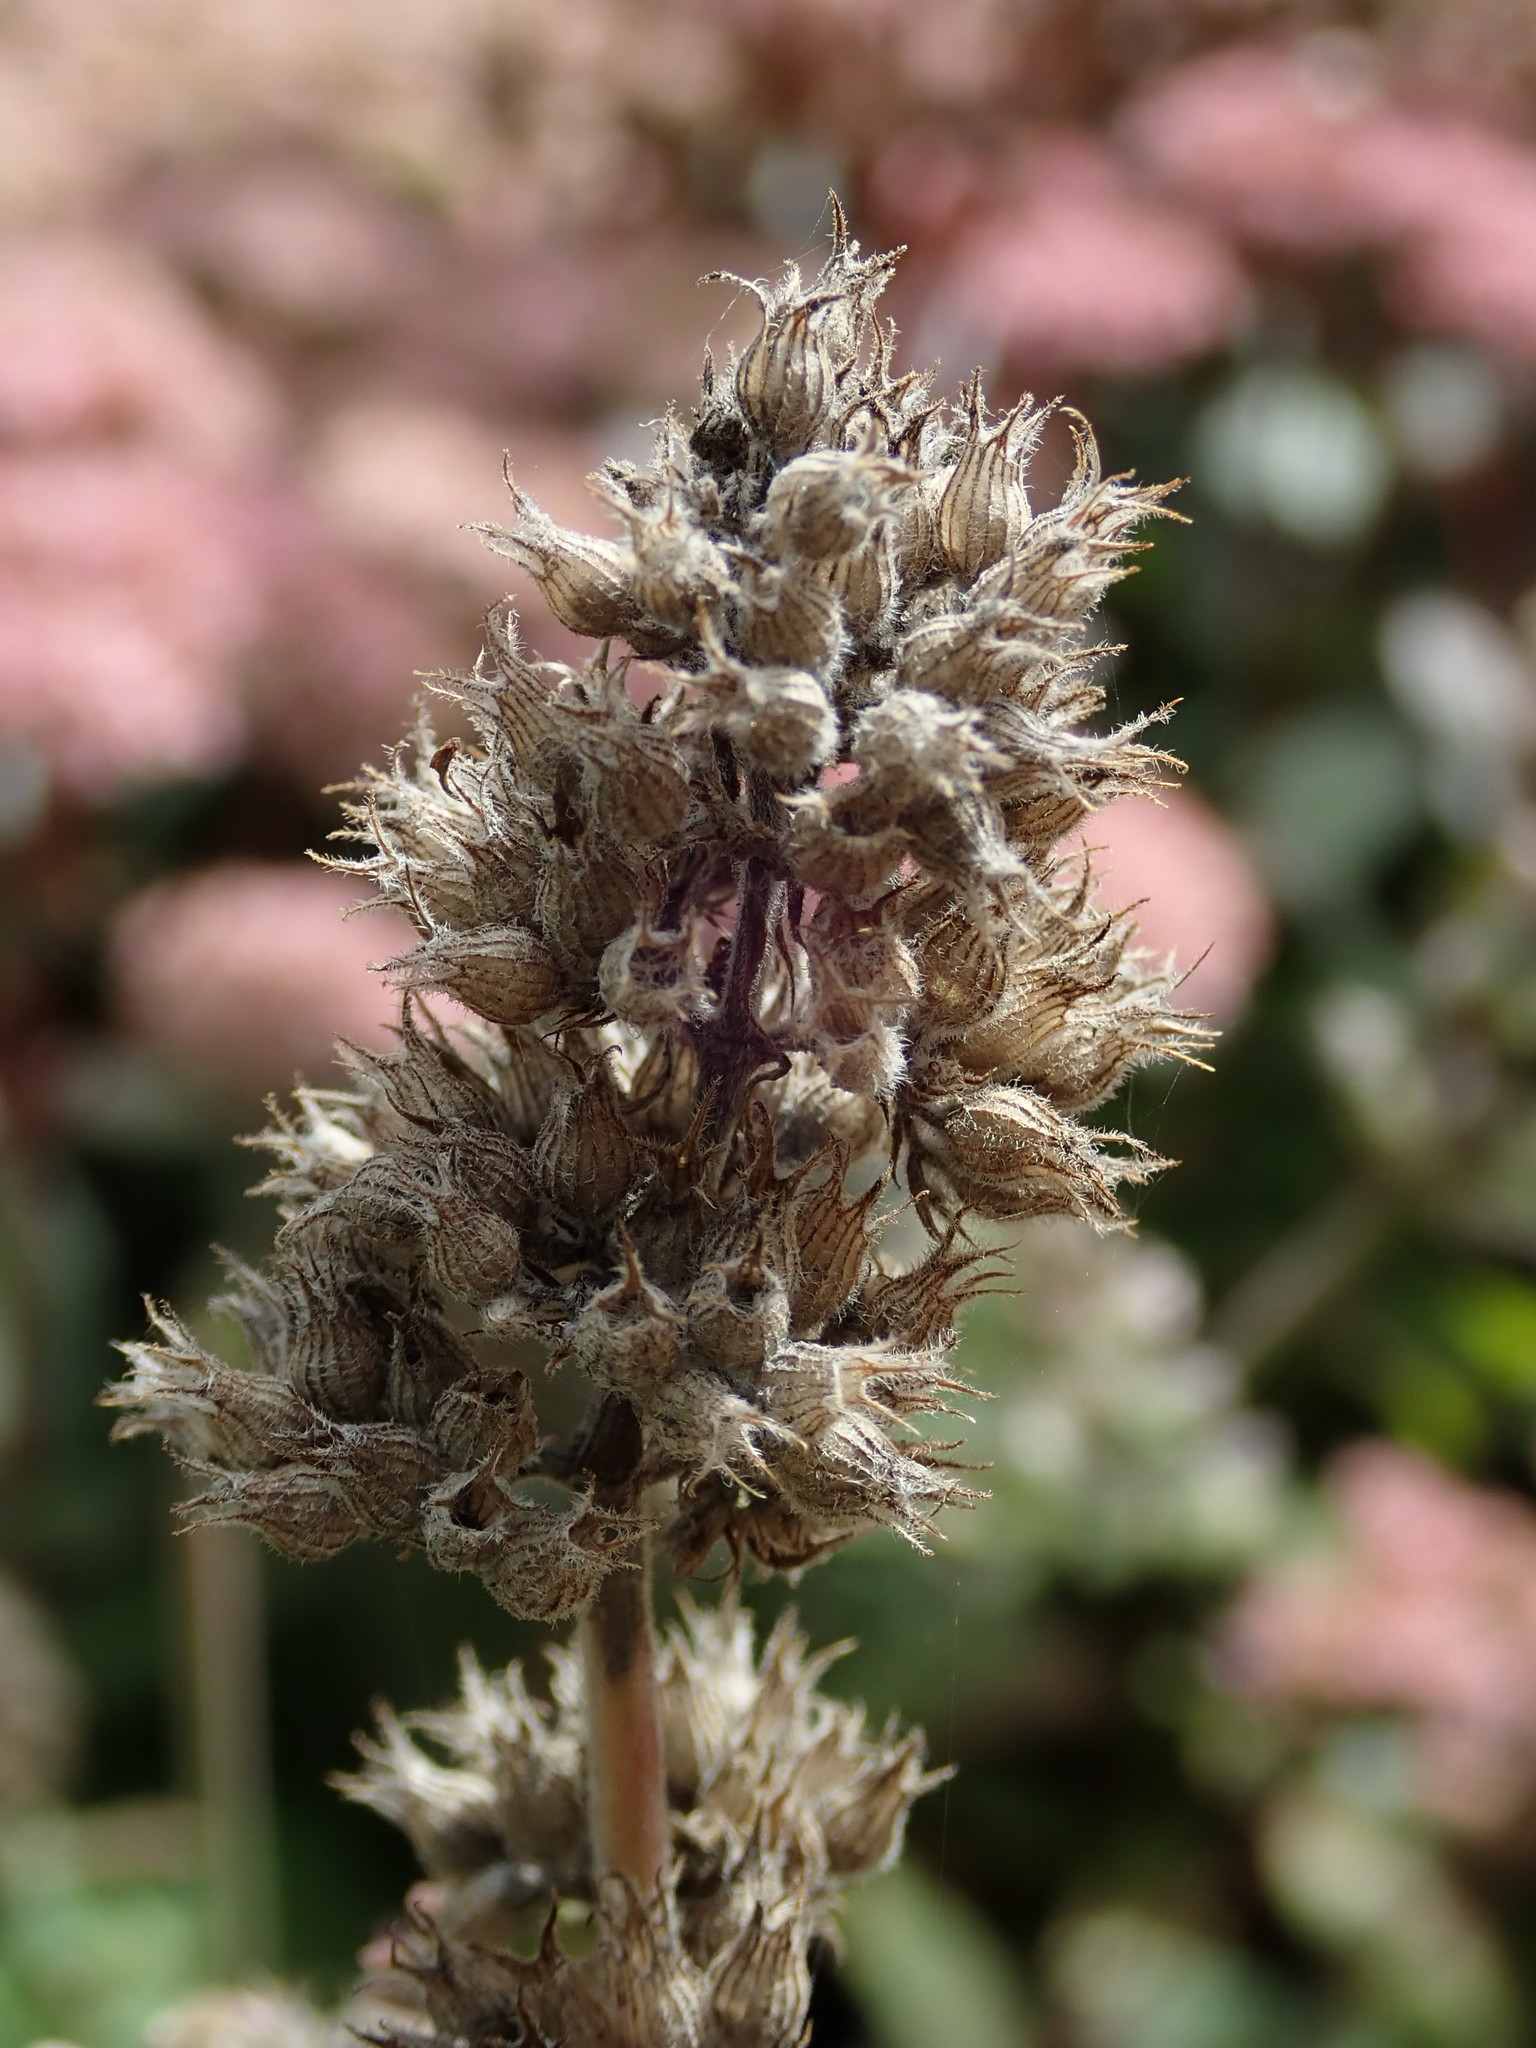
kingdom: Plantae
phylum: Tracheophyta
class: Magnoliopsida
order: Lamiales
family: Lamiaceae
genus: Nepeta
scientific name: Nepeta cataria
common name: Catnip
